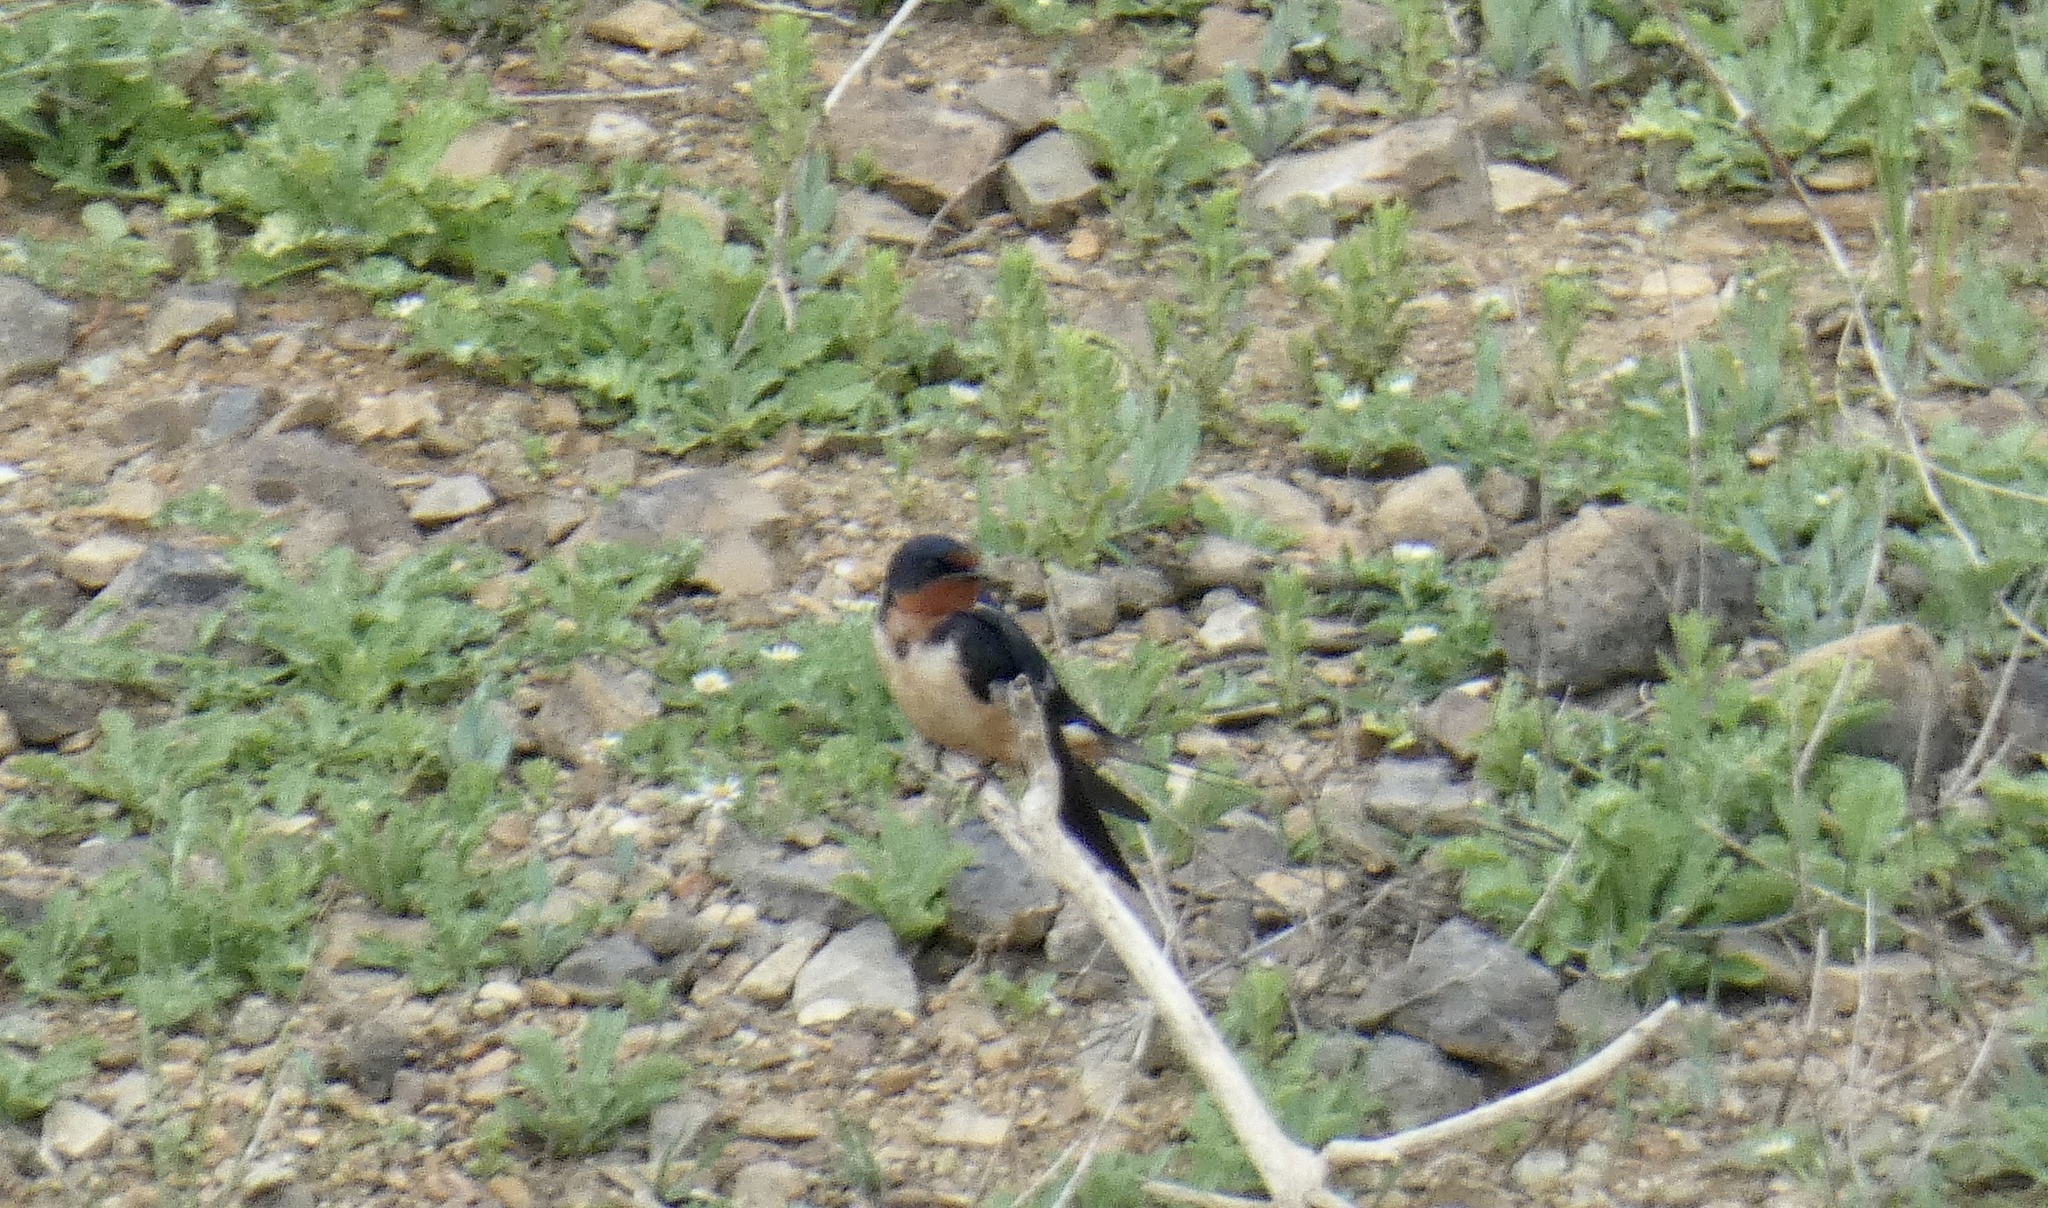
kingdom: Animalia
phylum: Chordata
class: Aves
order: Passeriformes
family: Hirundinidae
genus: Hirundo
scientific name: Hirundo rustica
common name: Barn swallow
